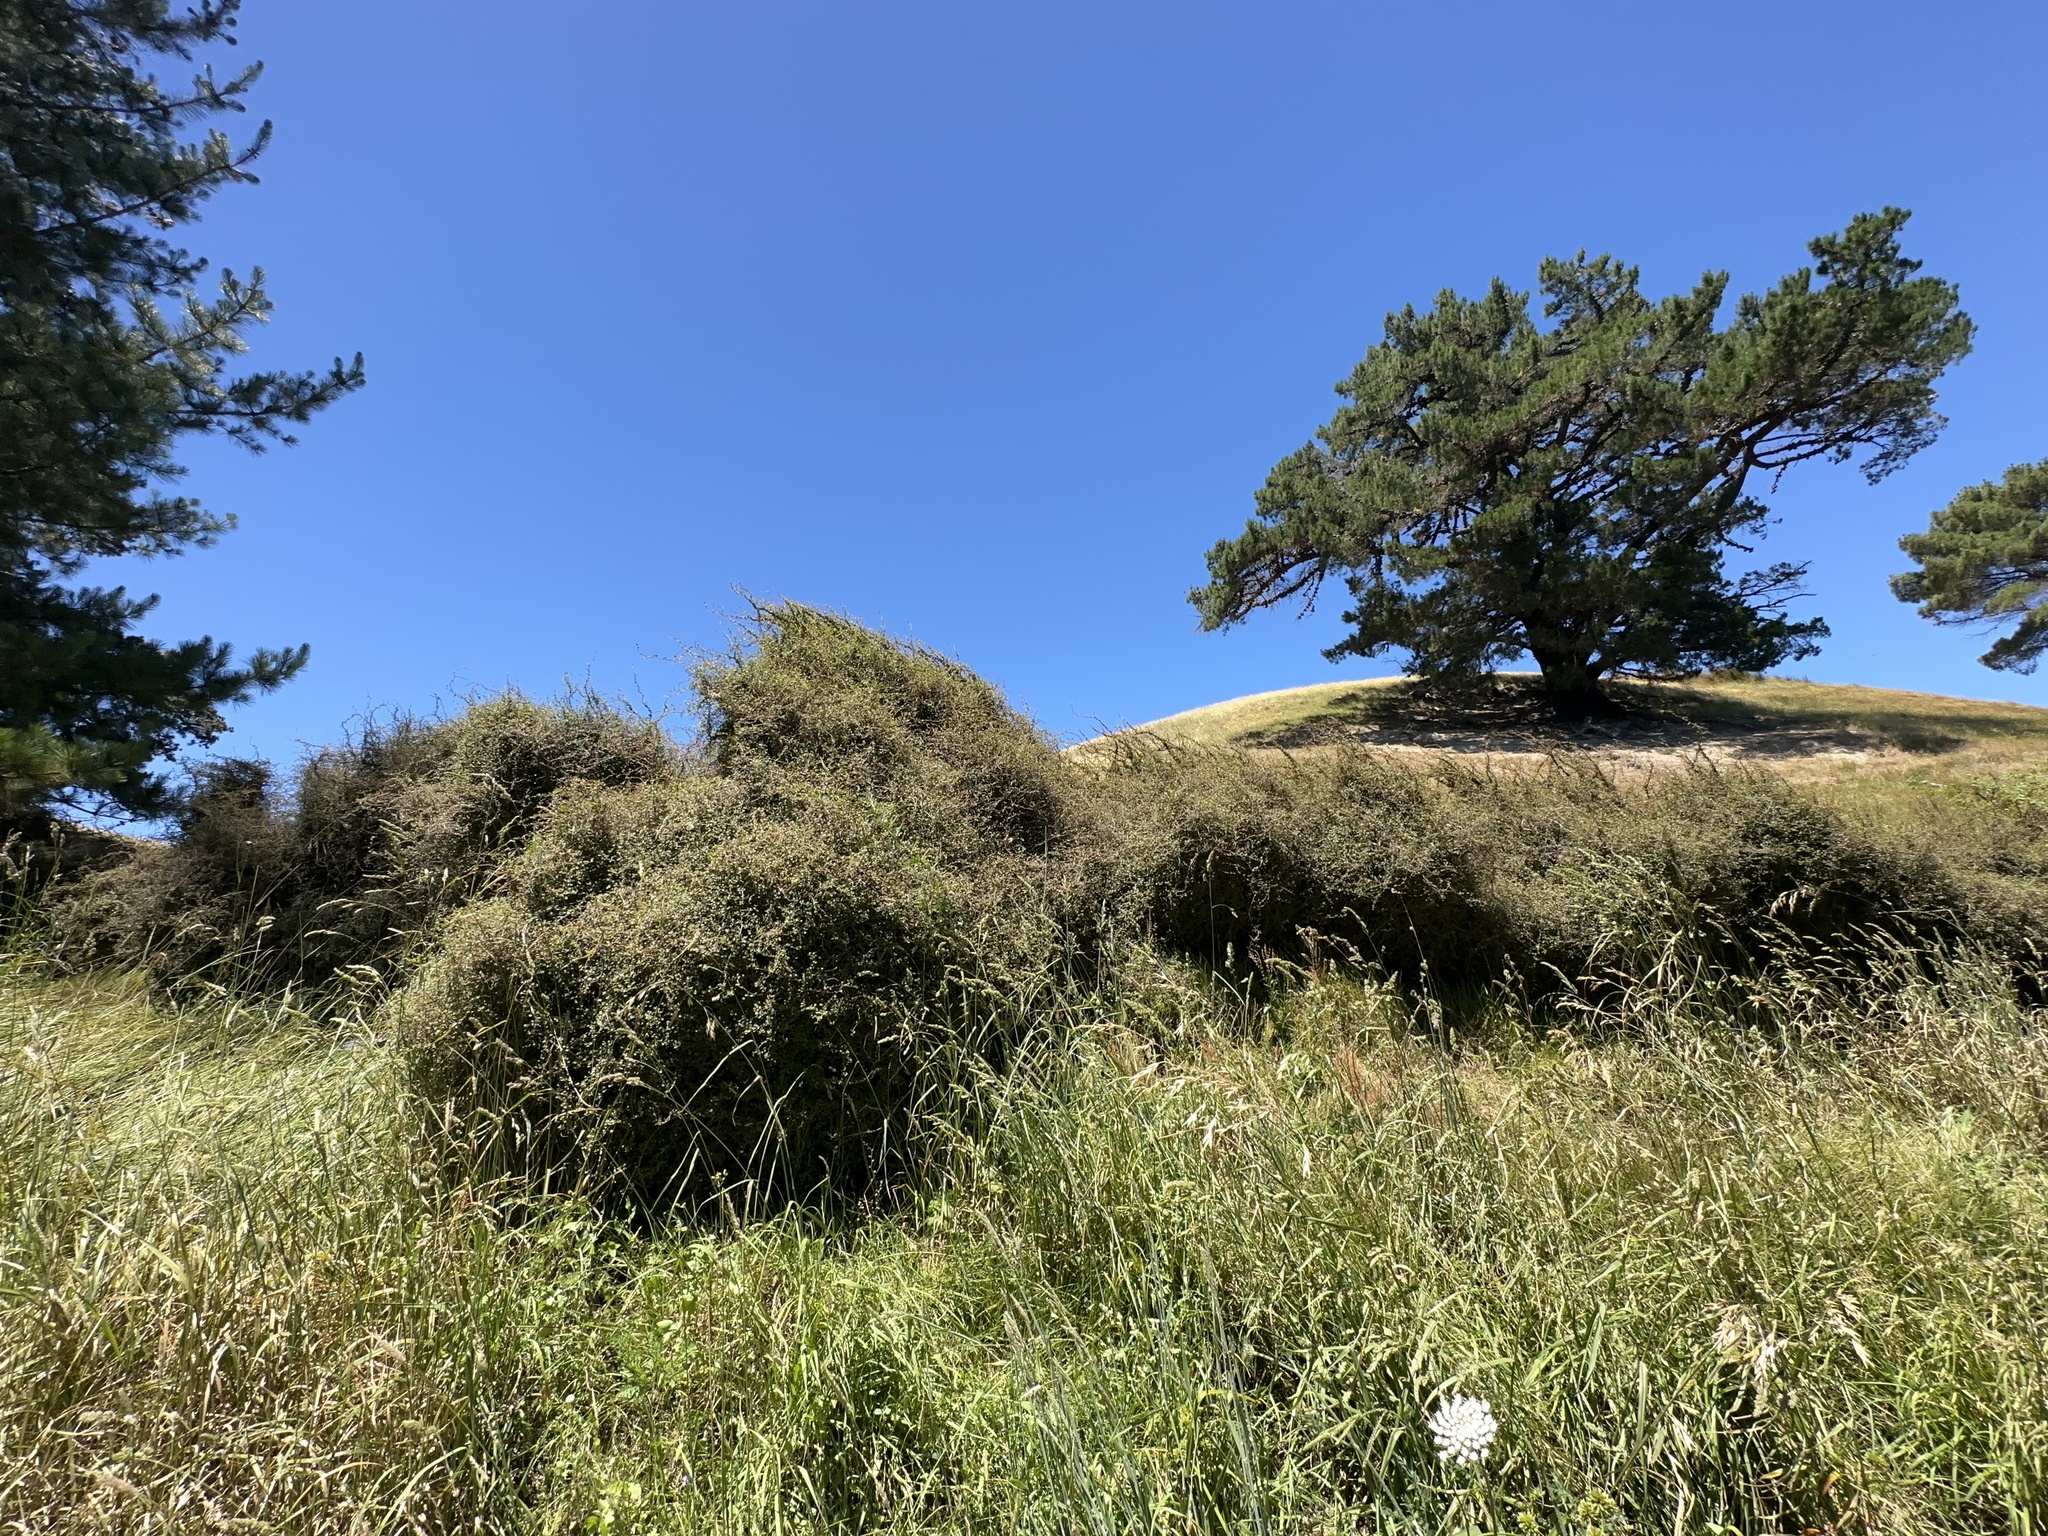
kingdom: Plantae
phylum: Tracheophyta
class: Magnoliopsida
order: Caryophyllales
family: Polygonaceae
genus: Muehlenbeckia
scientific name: Muehlenbeckia complexa
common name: Wireplant
